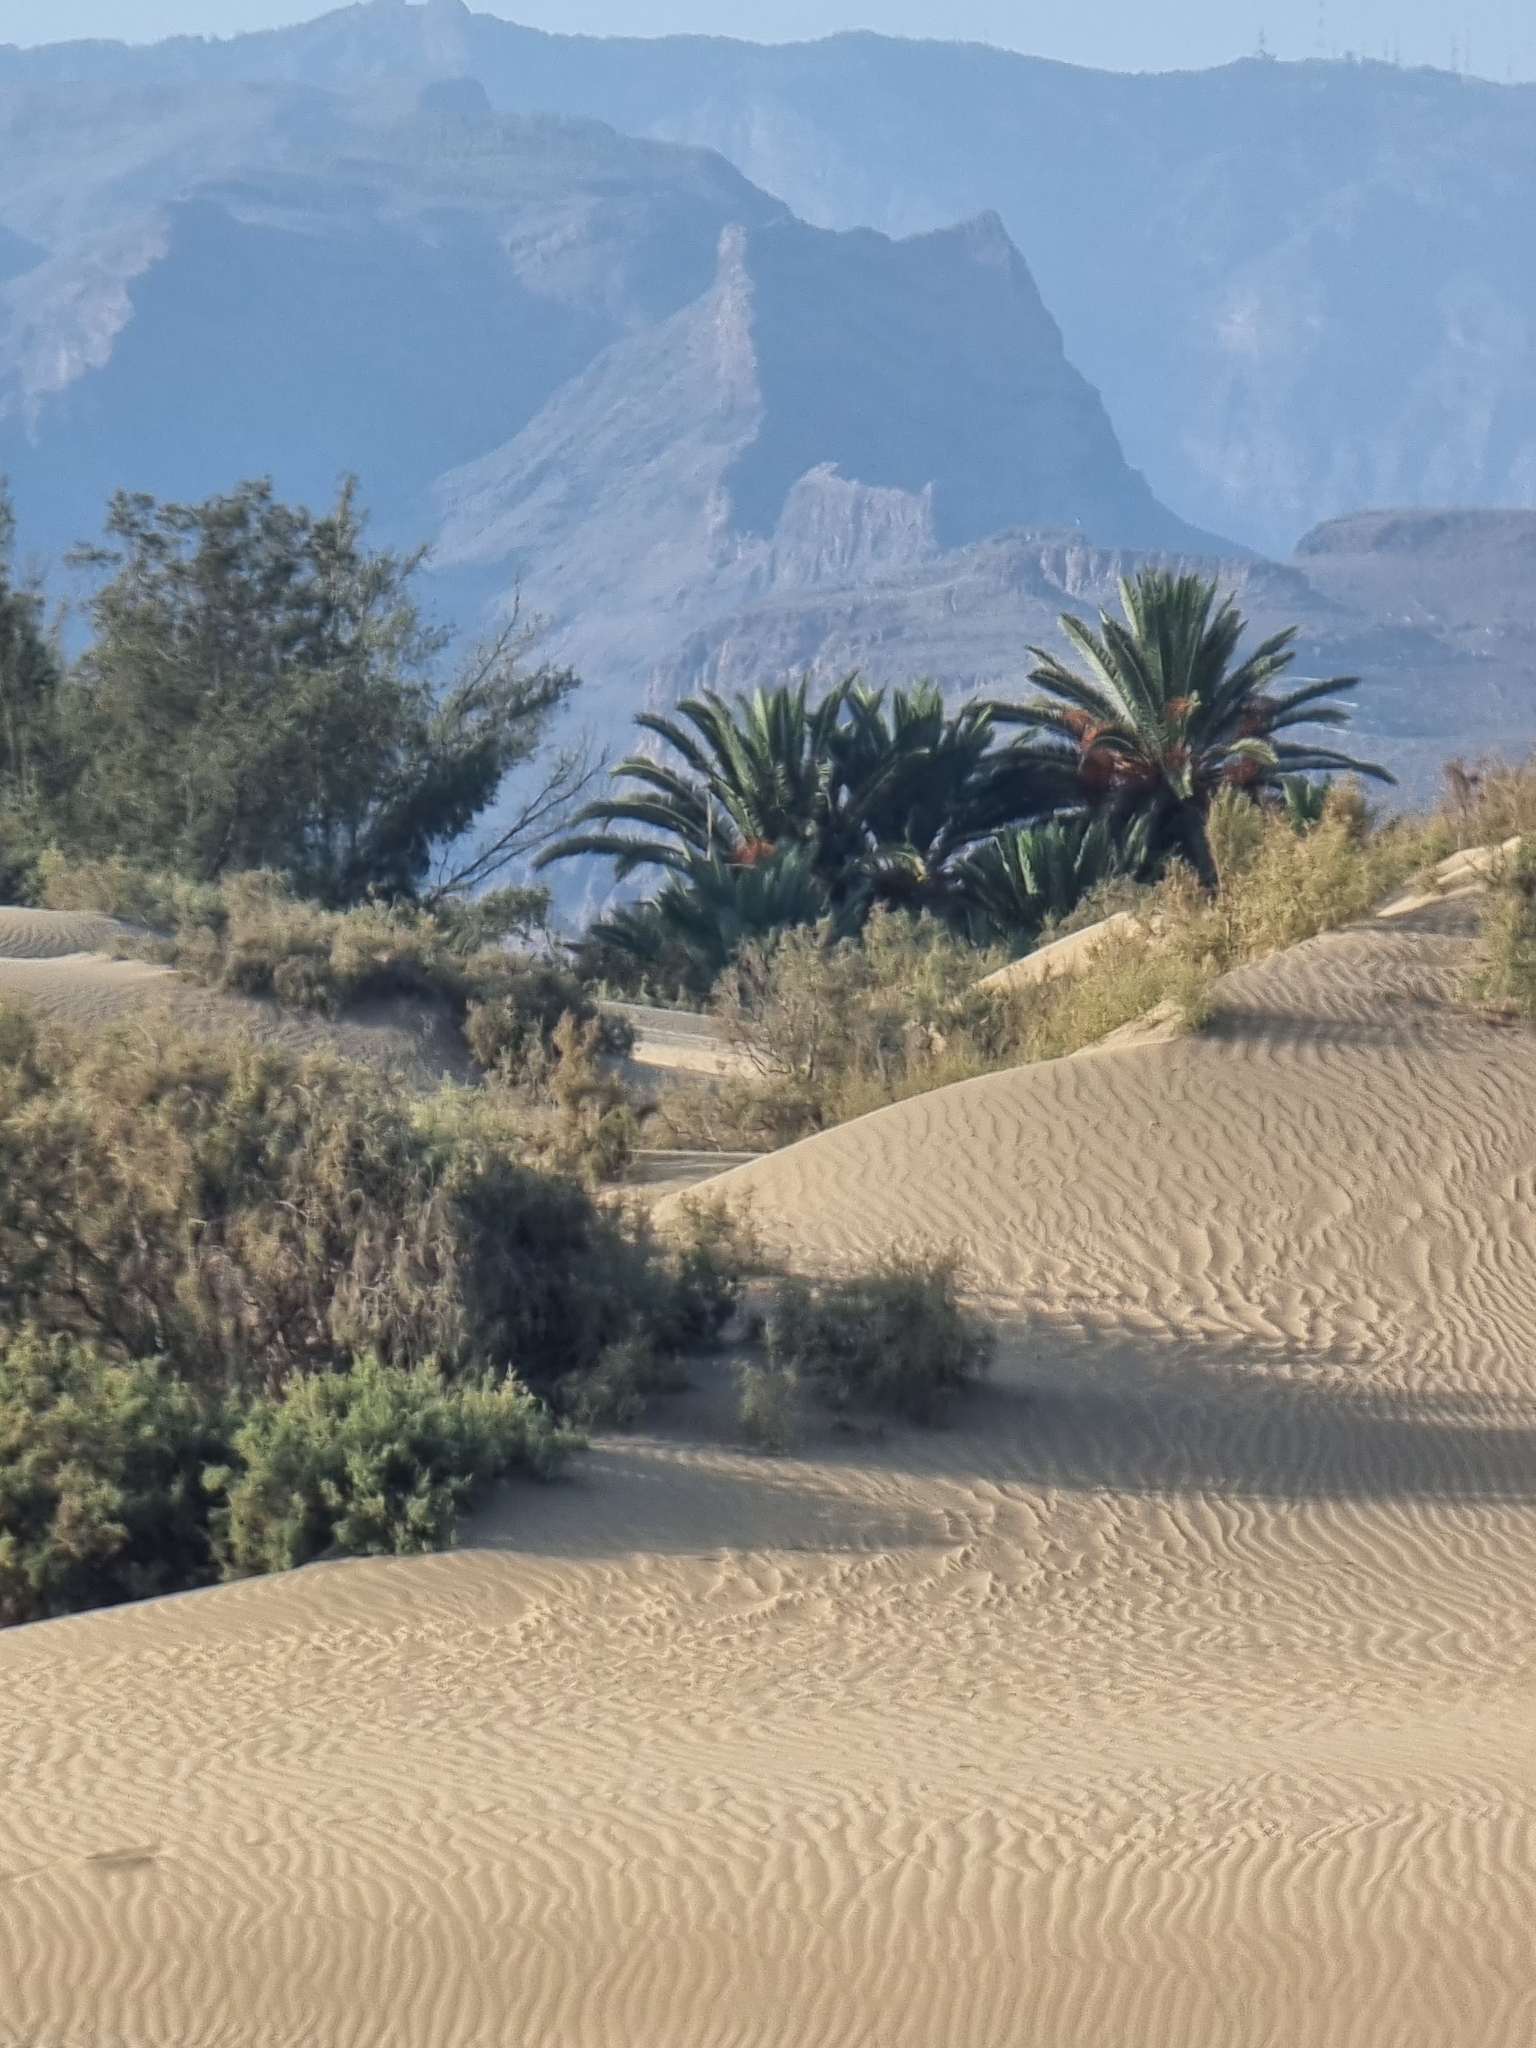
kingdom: Plantae
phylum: Tracheophyta
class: Liliopsida
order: Arecales
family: Arecaceae
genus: Phoenix
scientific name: Phoenix canariensis
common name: Canary island date palm
